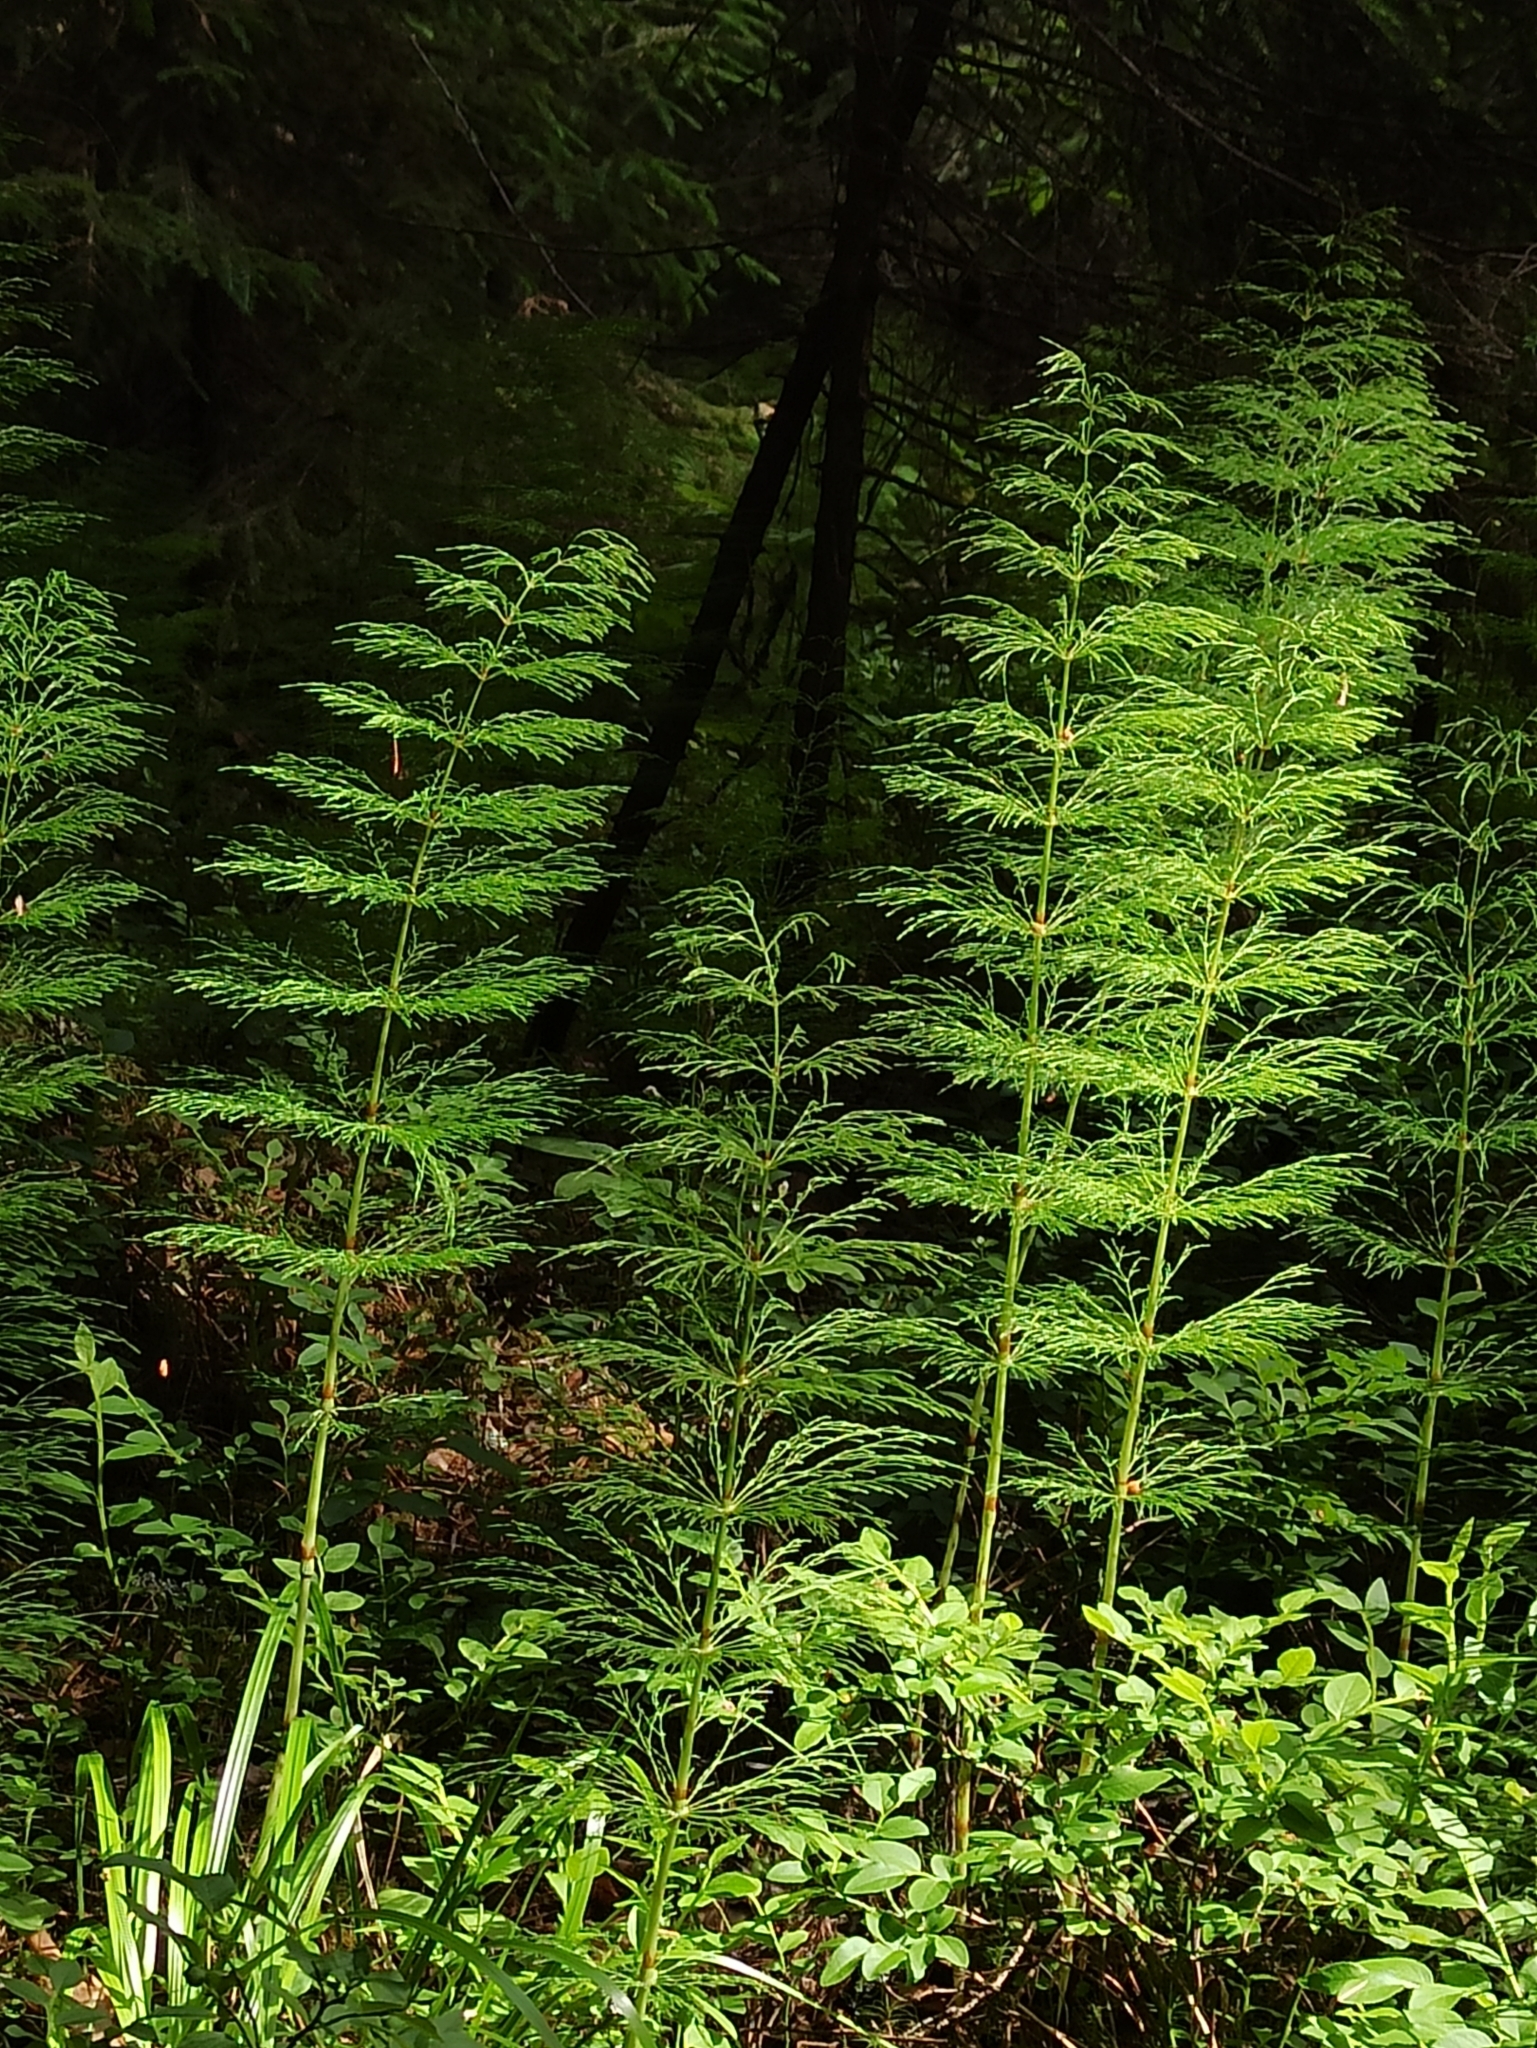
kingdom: Plantae
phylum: Tracheophyta
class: Polypodiopsida
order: Equisetales
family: Equisetaceae
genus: Equisetum
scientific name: Equisetum sylvaticum
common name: Wood horsetail
